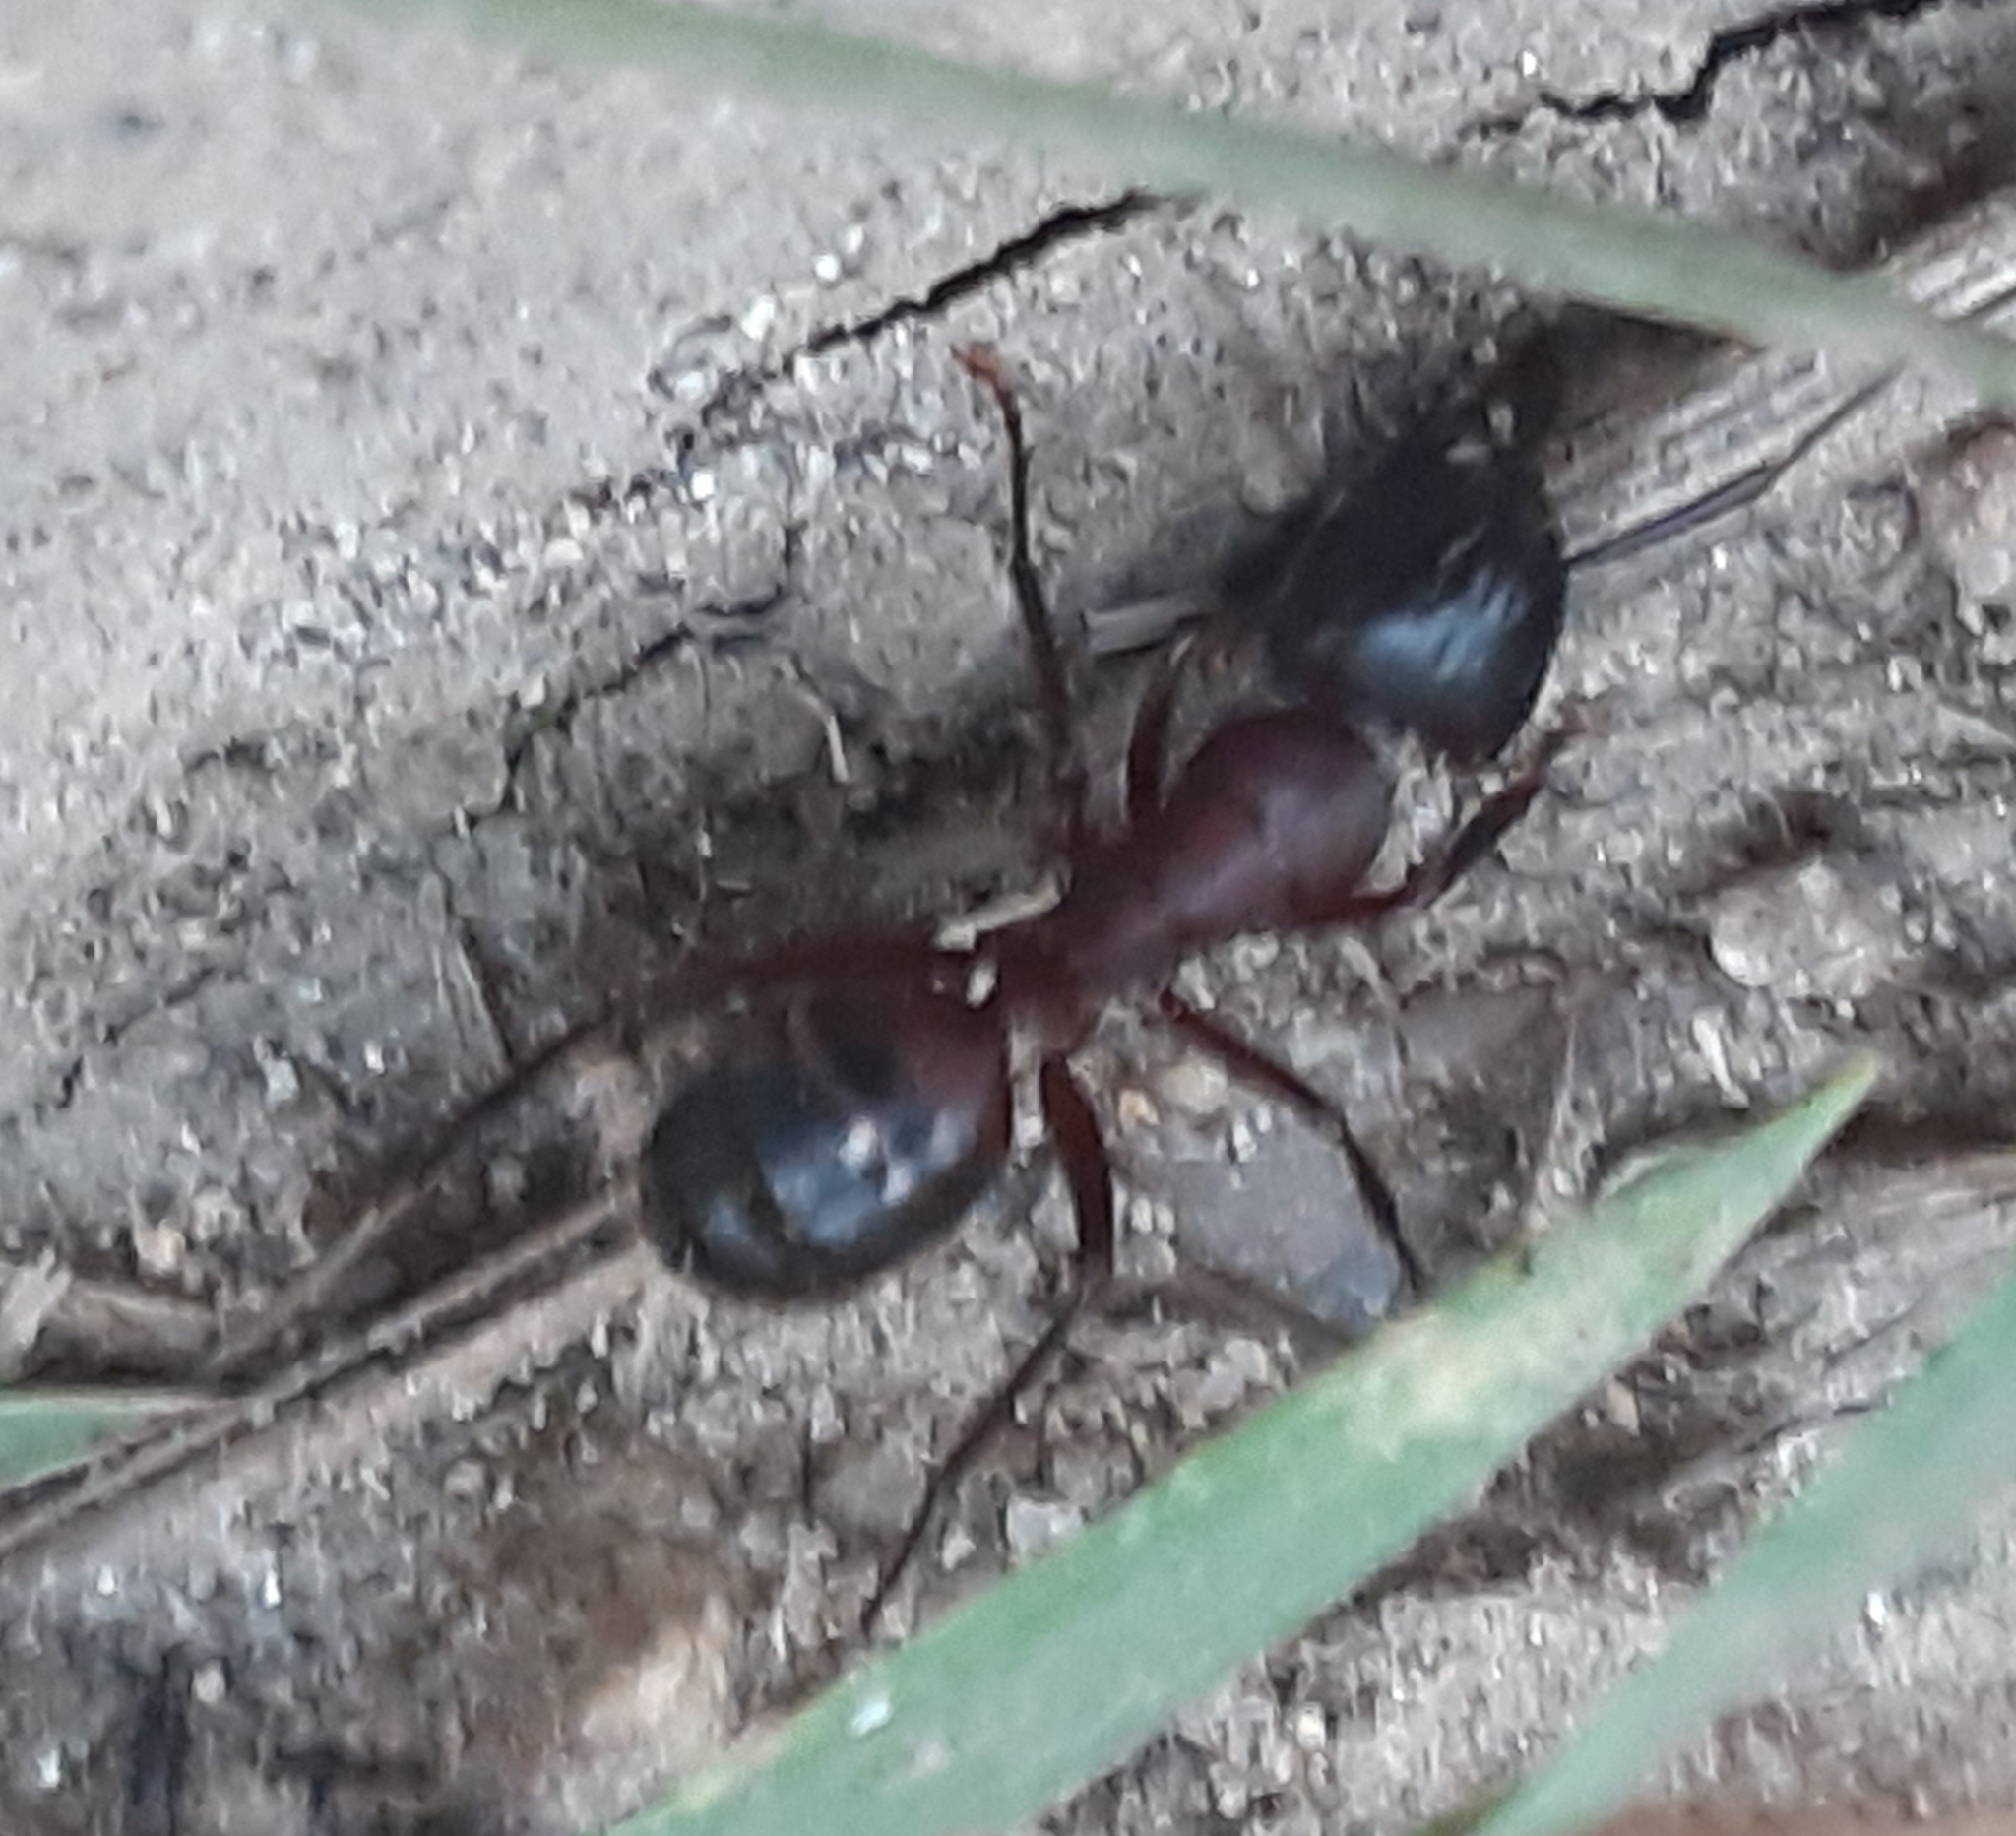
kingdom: Animalia
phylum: Arthropoda
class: Insecta
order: Hymenoptera
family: Formicidae
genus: Camponotus
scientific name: Camponotus ligniperdus
